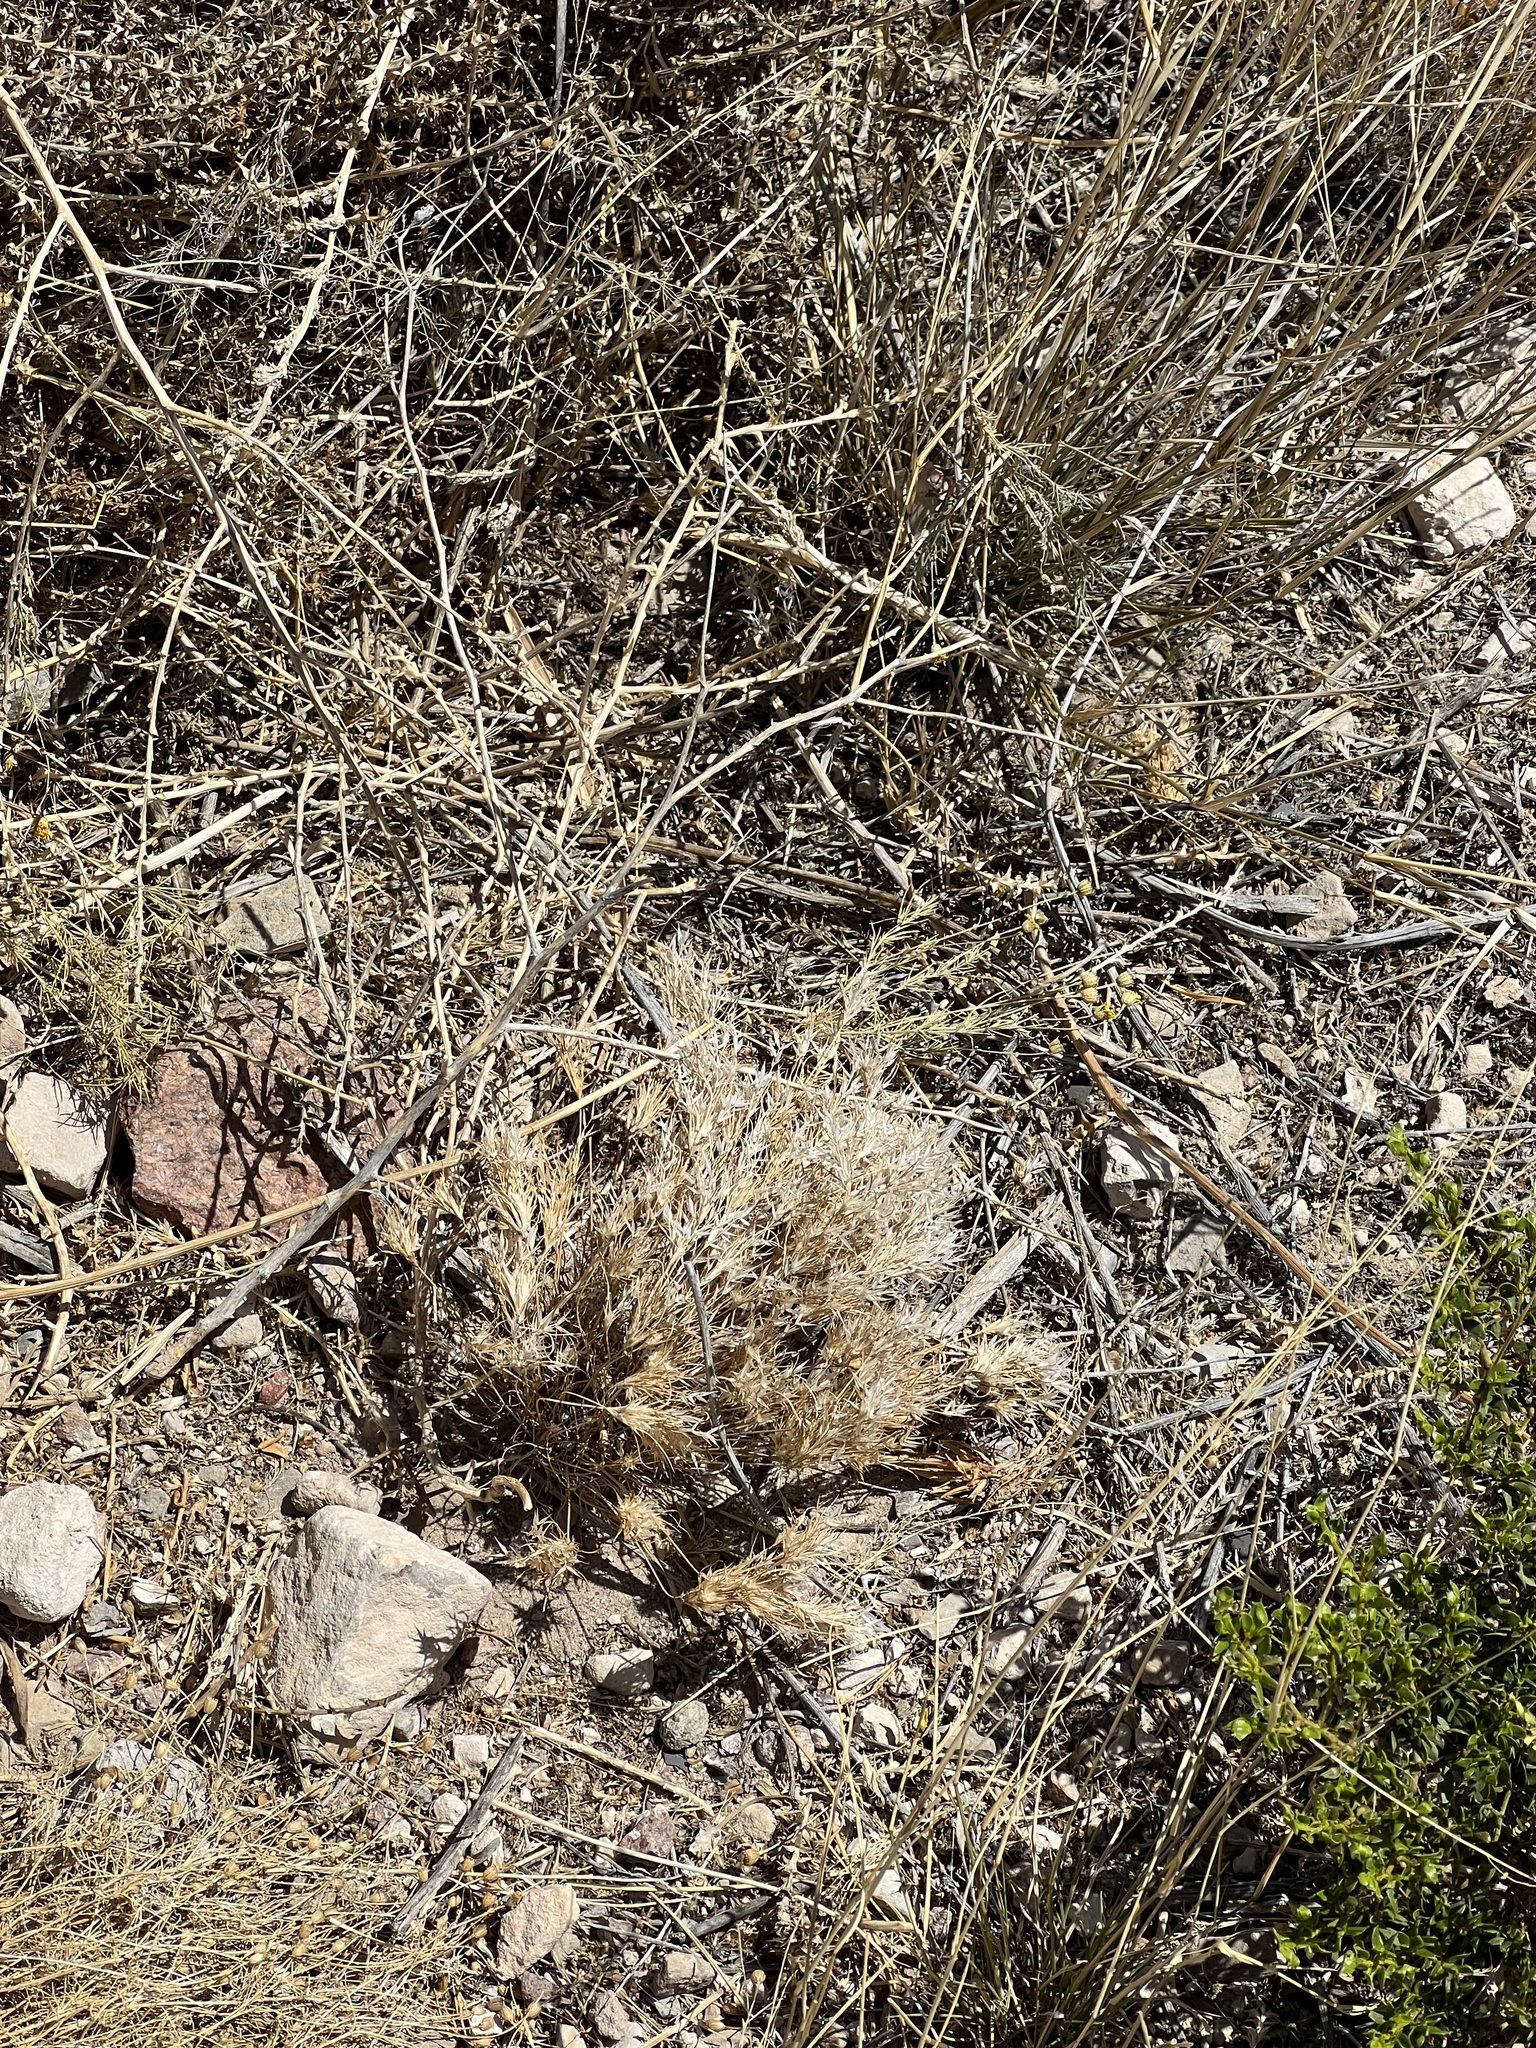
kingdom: Plantae
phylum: Tracheophyta
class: Liliopsida
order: Poales
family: Poaceae
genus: Dasyochloa
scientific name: Dasyochloa pulchella
